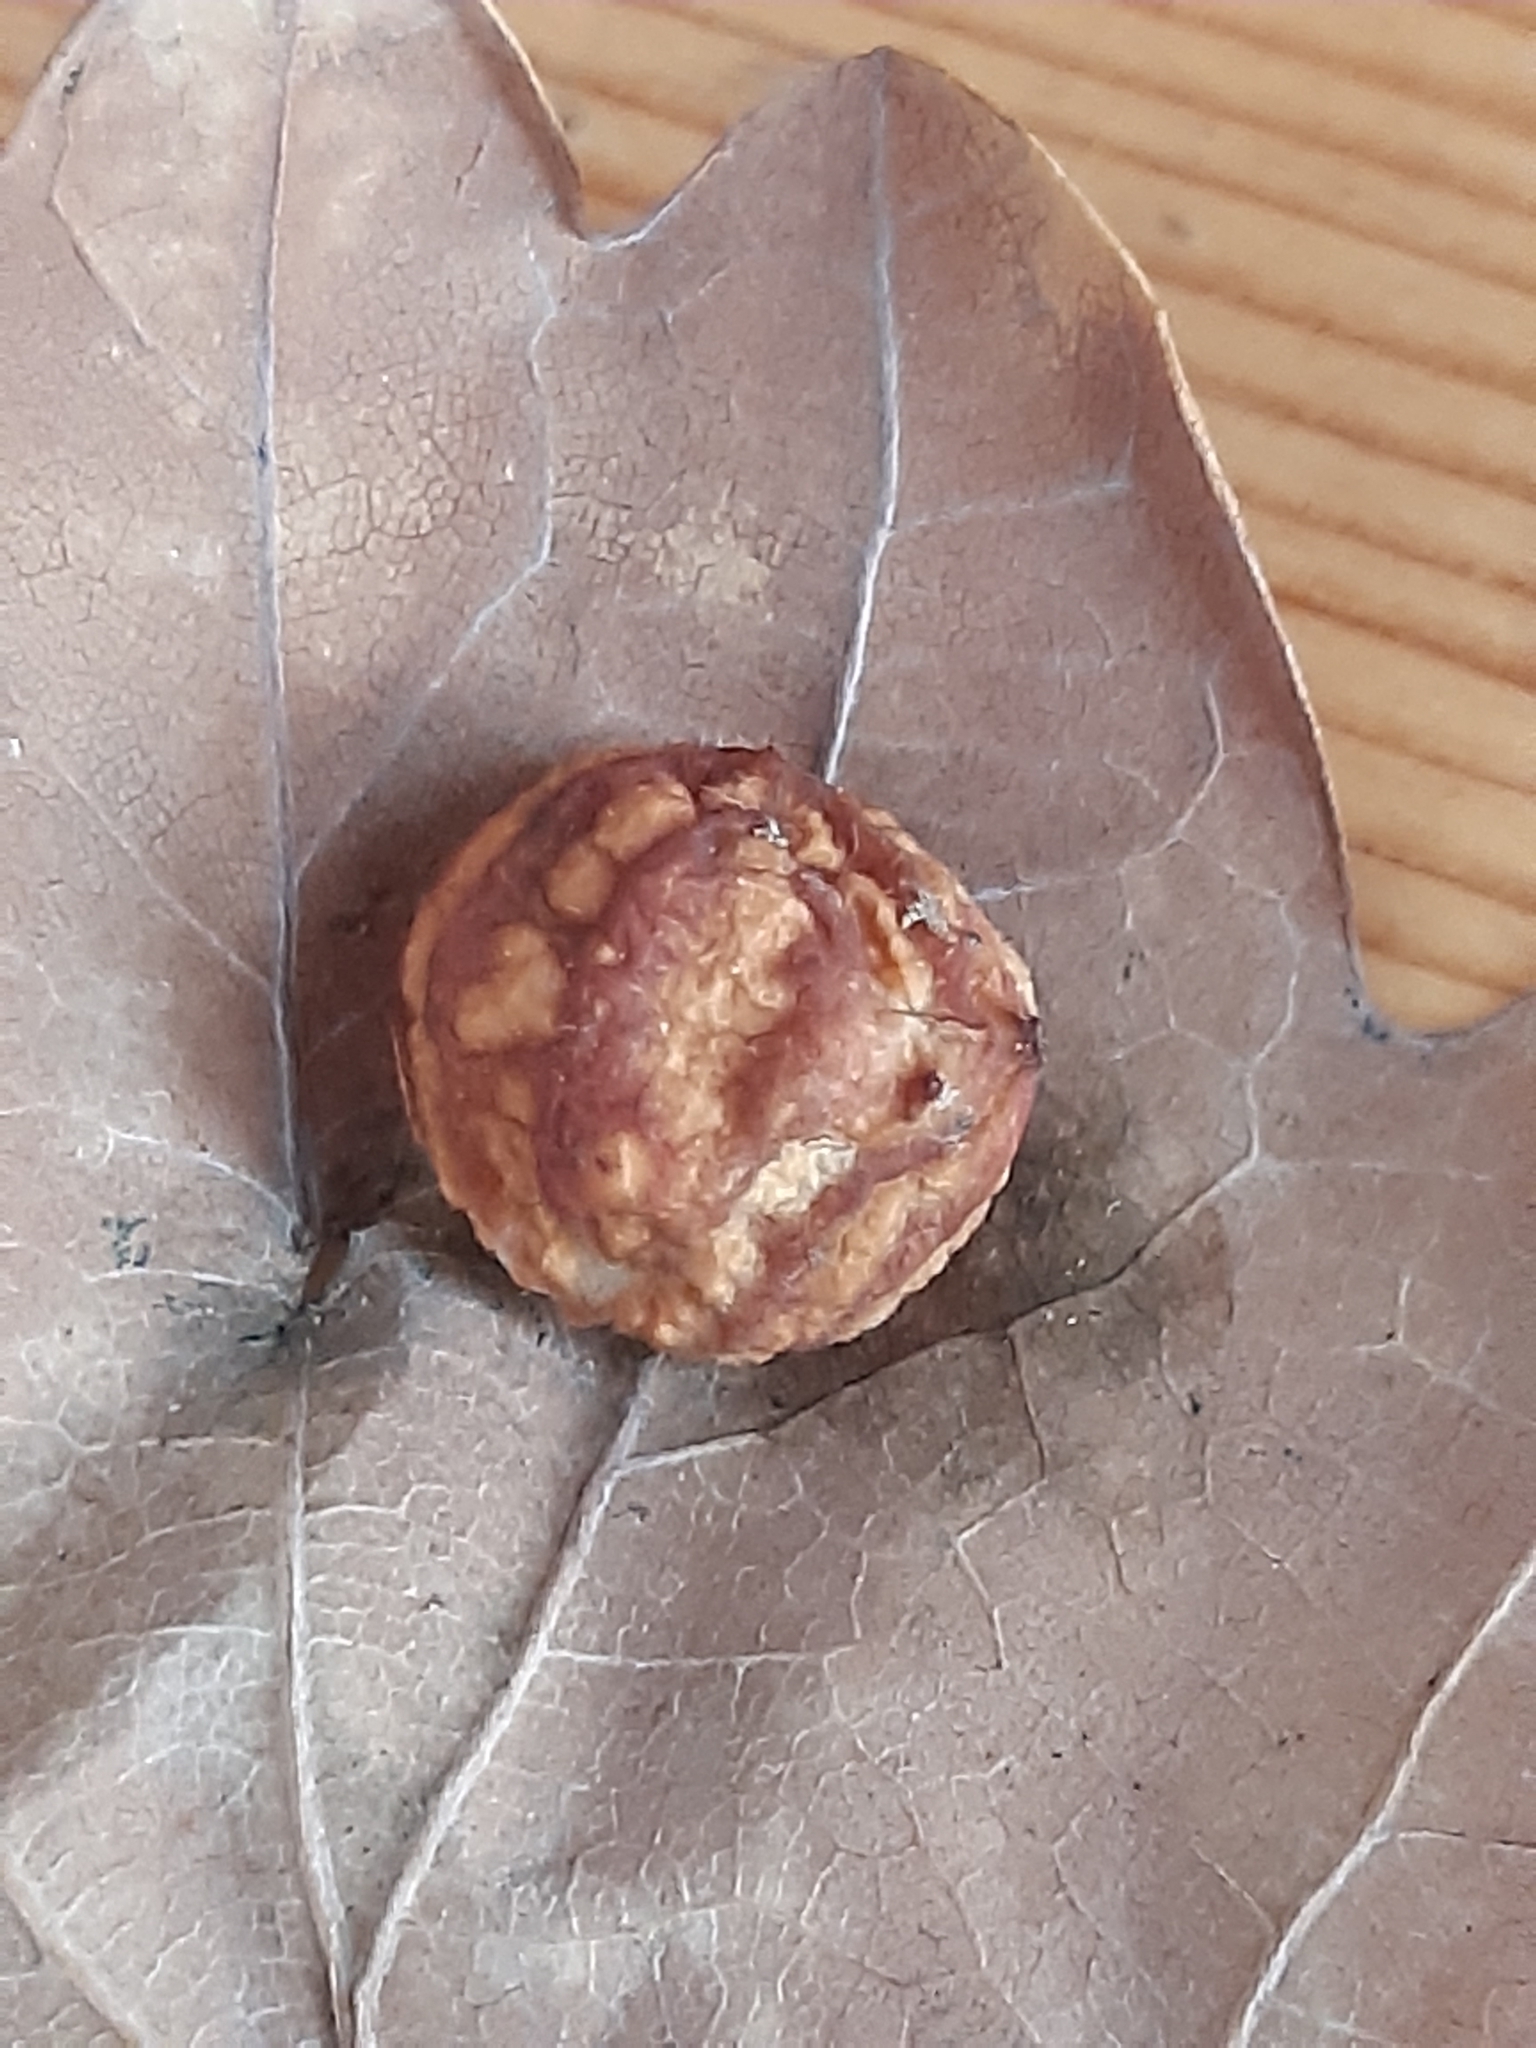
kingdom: Animalia
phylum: Arthropoda
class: Insecta
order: Hymenoptera
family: Cynipidae
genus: Cynips
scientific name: Cynips longiventris
